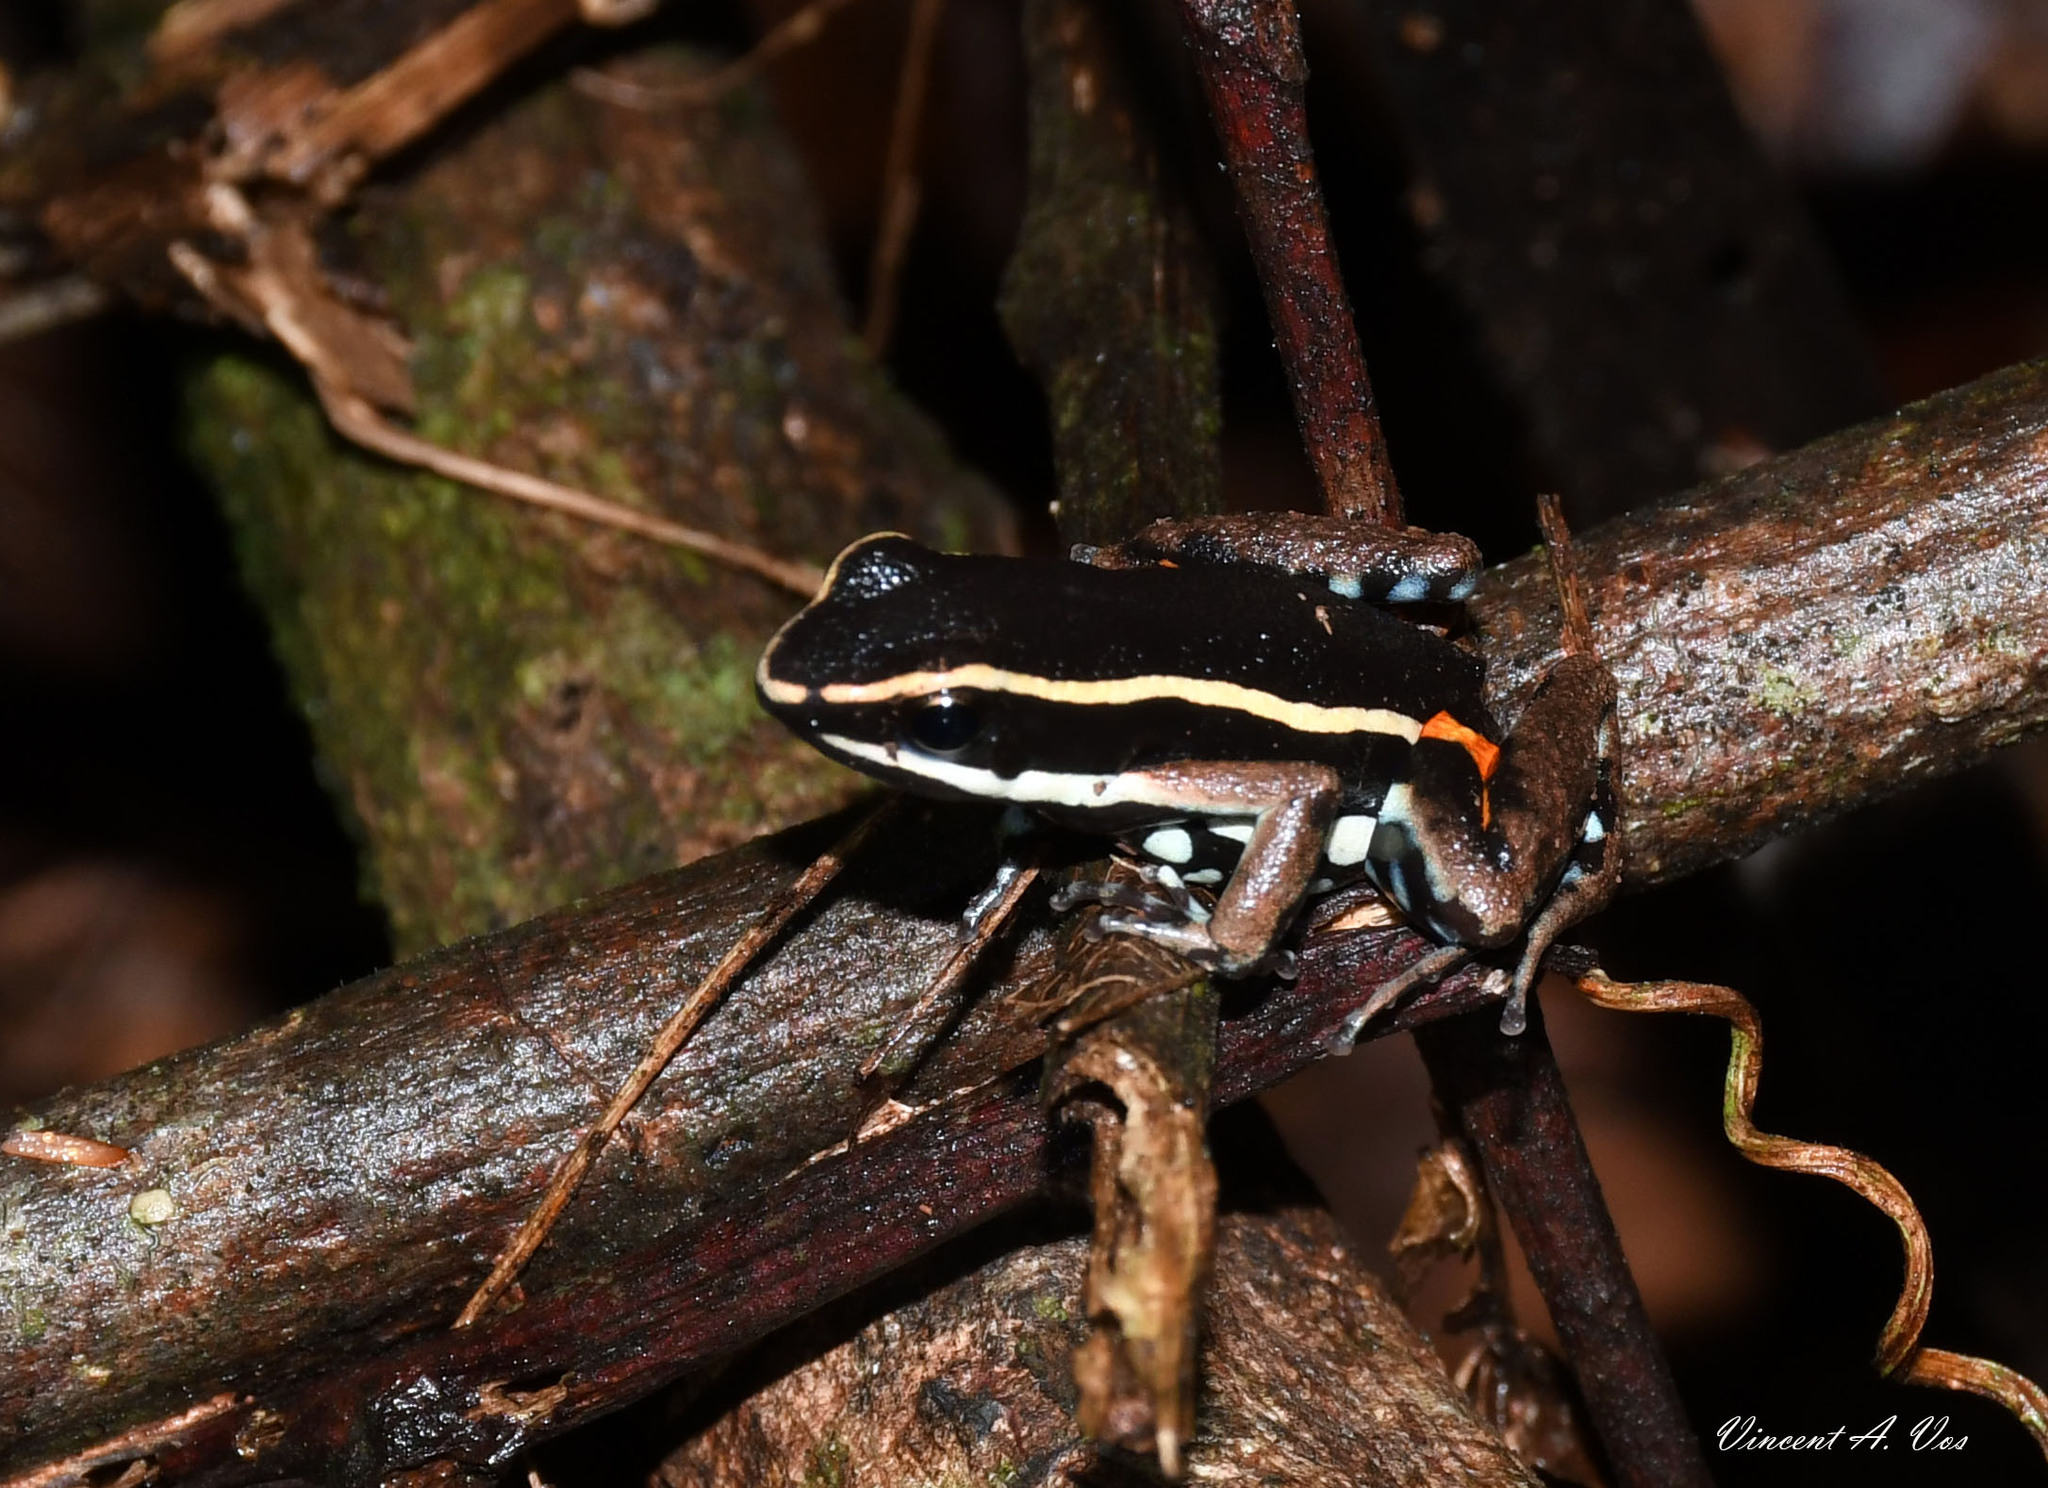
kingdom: Animalia
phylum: Chordata
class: Amphibia
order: Anura
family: Dendrobatidae
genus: Ameerega
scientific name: Ameerega picta
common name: Spot-legged poison frog
